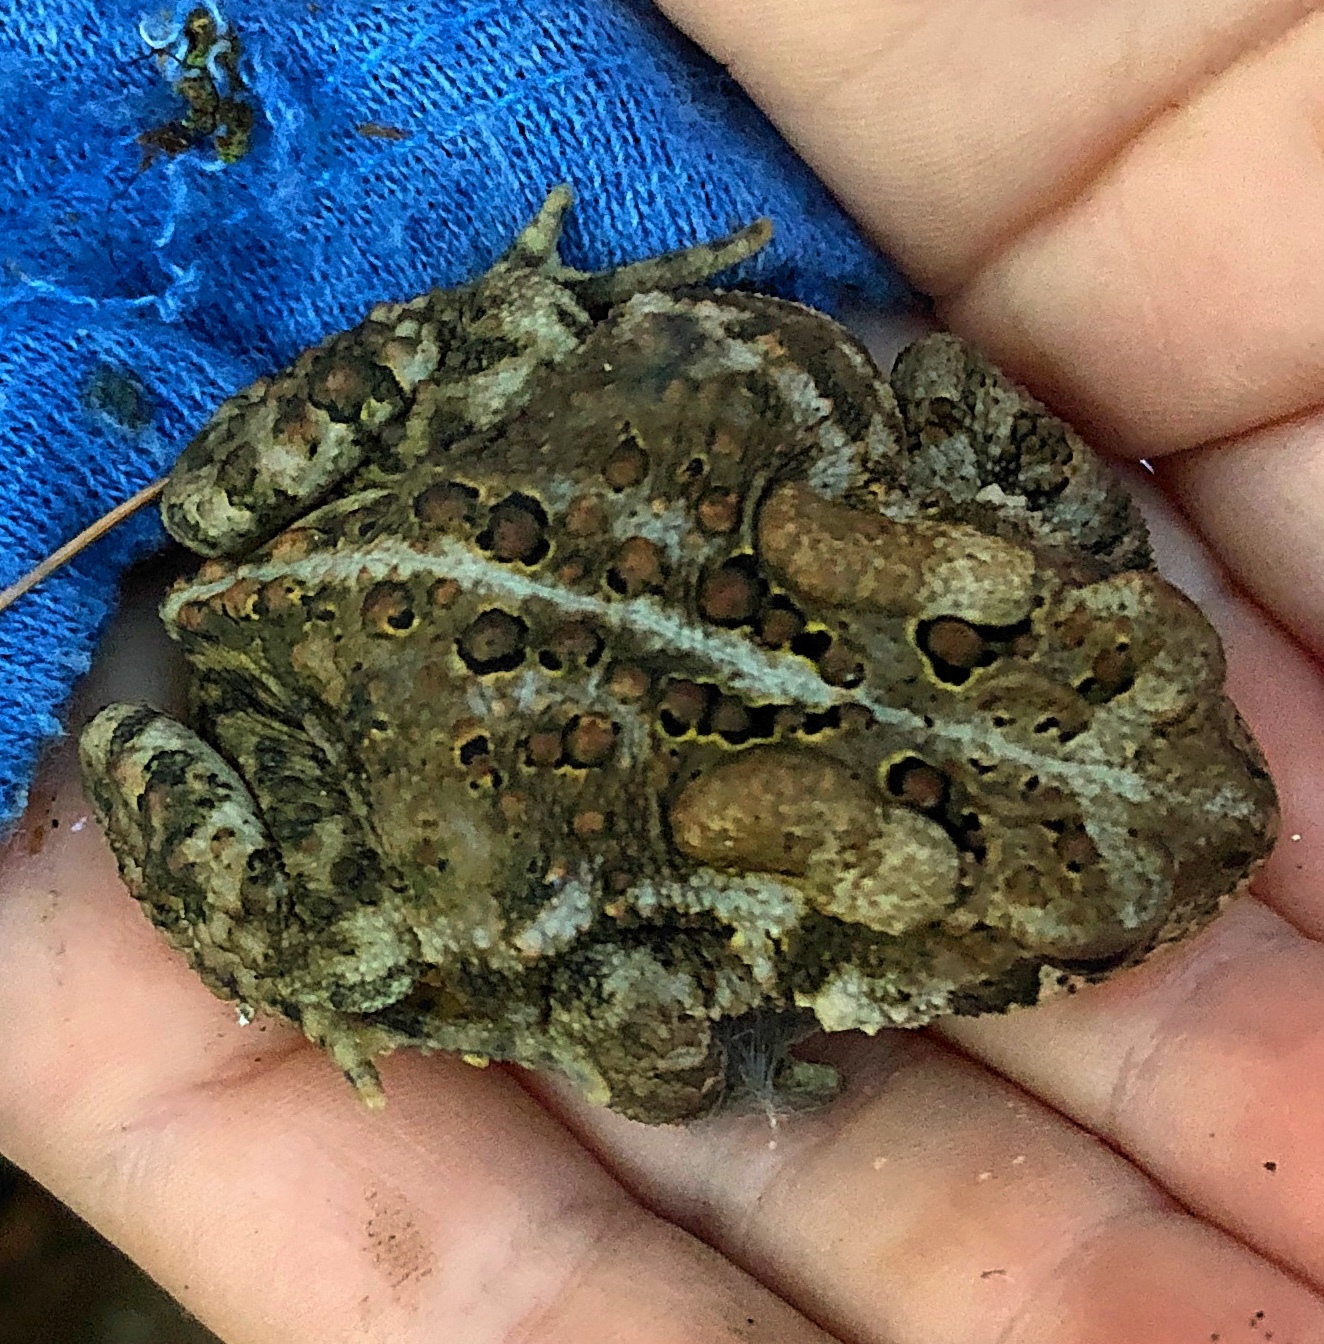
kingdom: Animalia
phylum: Chordata
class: Amphibia
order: Anura
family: Bufonidae
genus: Anaxyrus
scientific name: Anaxyrus americanus
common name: American toad
